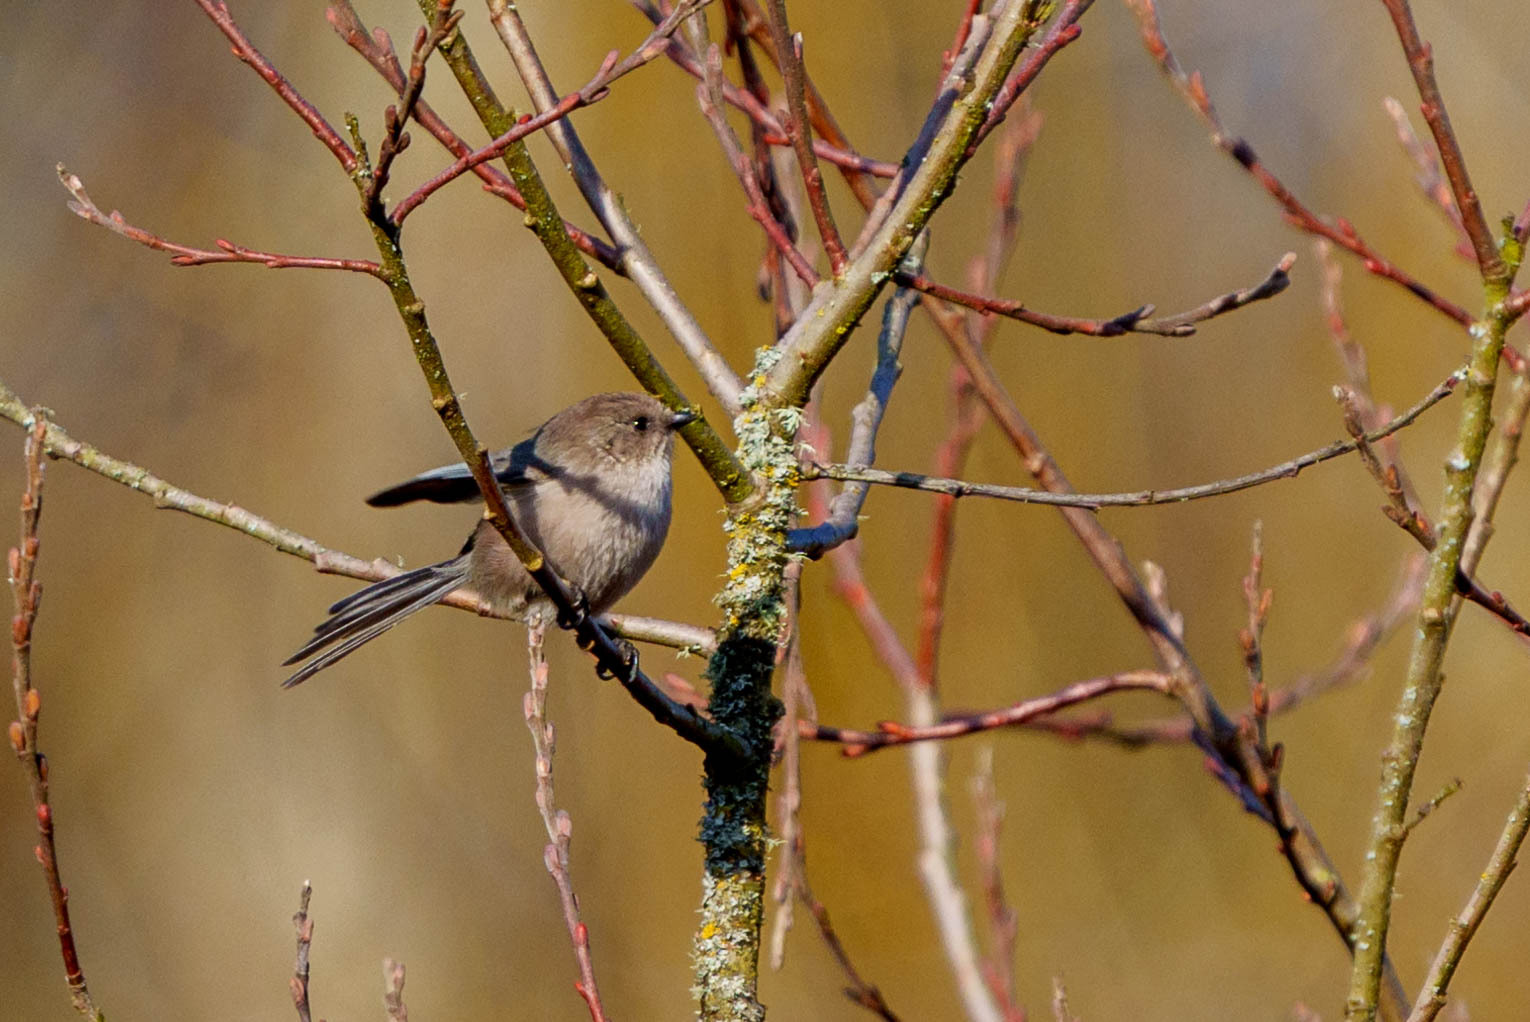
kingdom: Animalia
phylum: Chordata
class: Aves
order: Passeriformes
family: Aegithalidae
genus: Psaltriparus
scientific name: Psaltriparus minimus
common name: American bushtit
